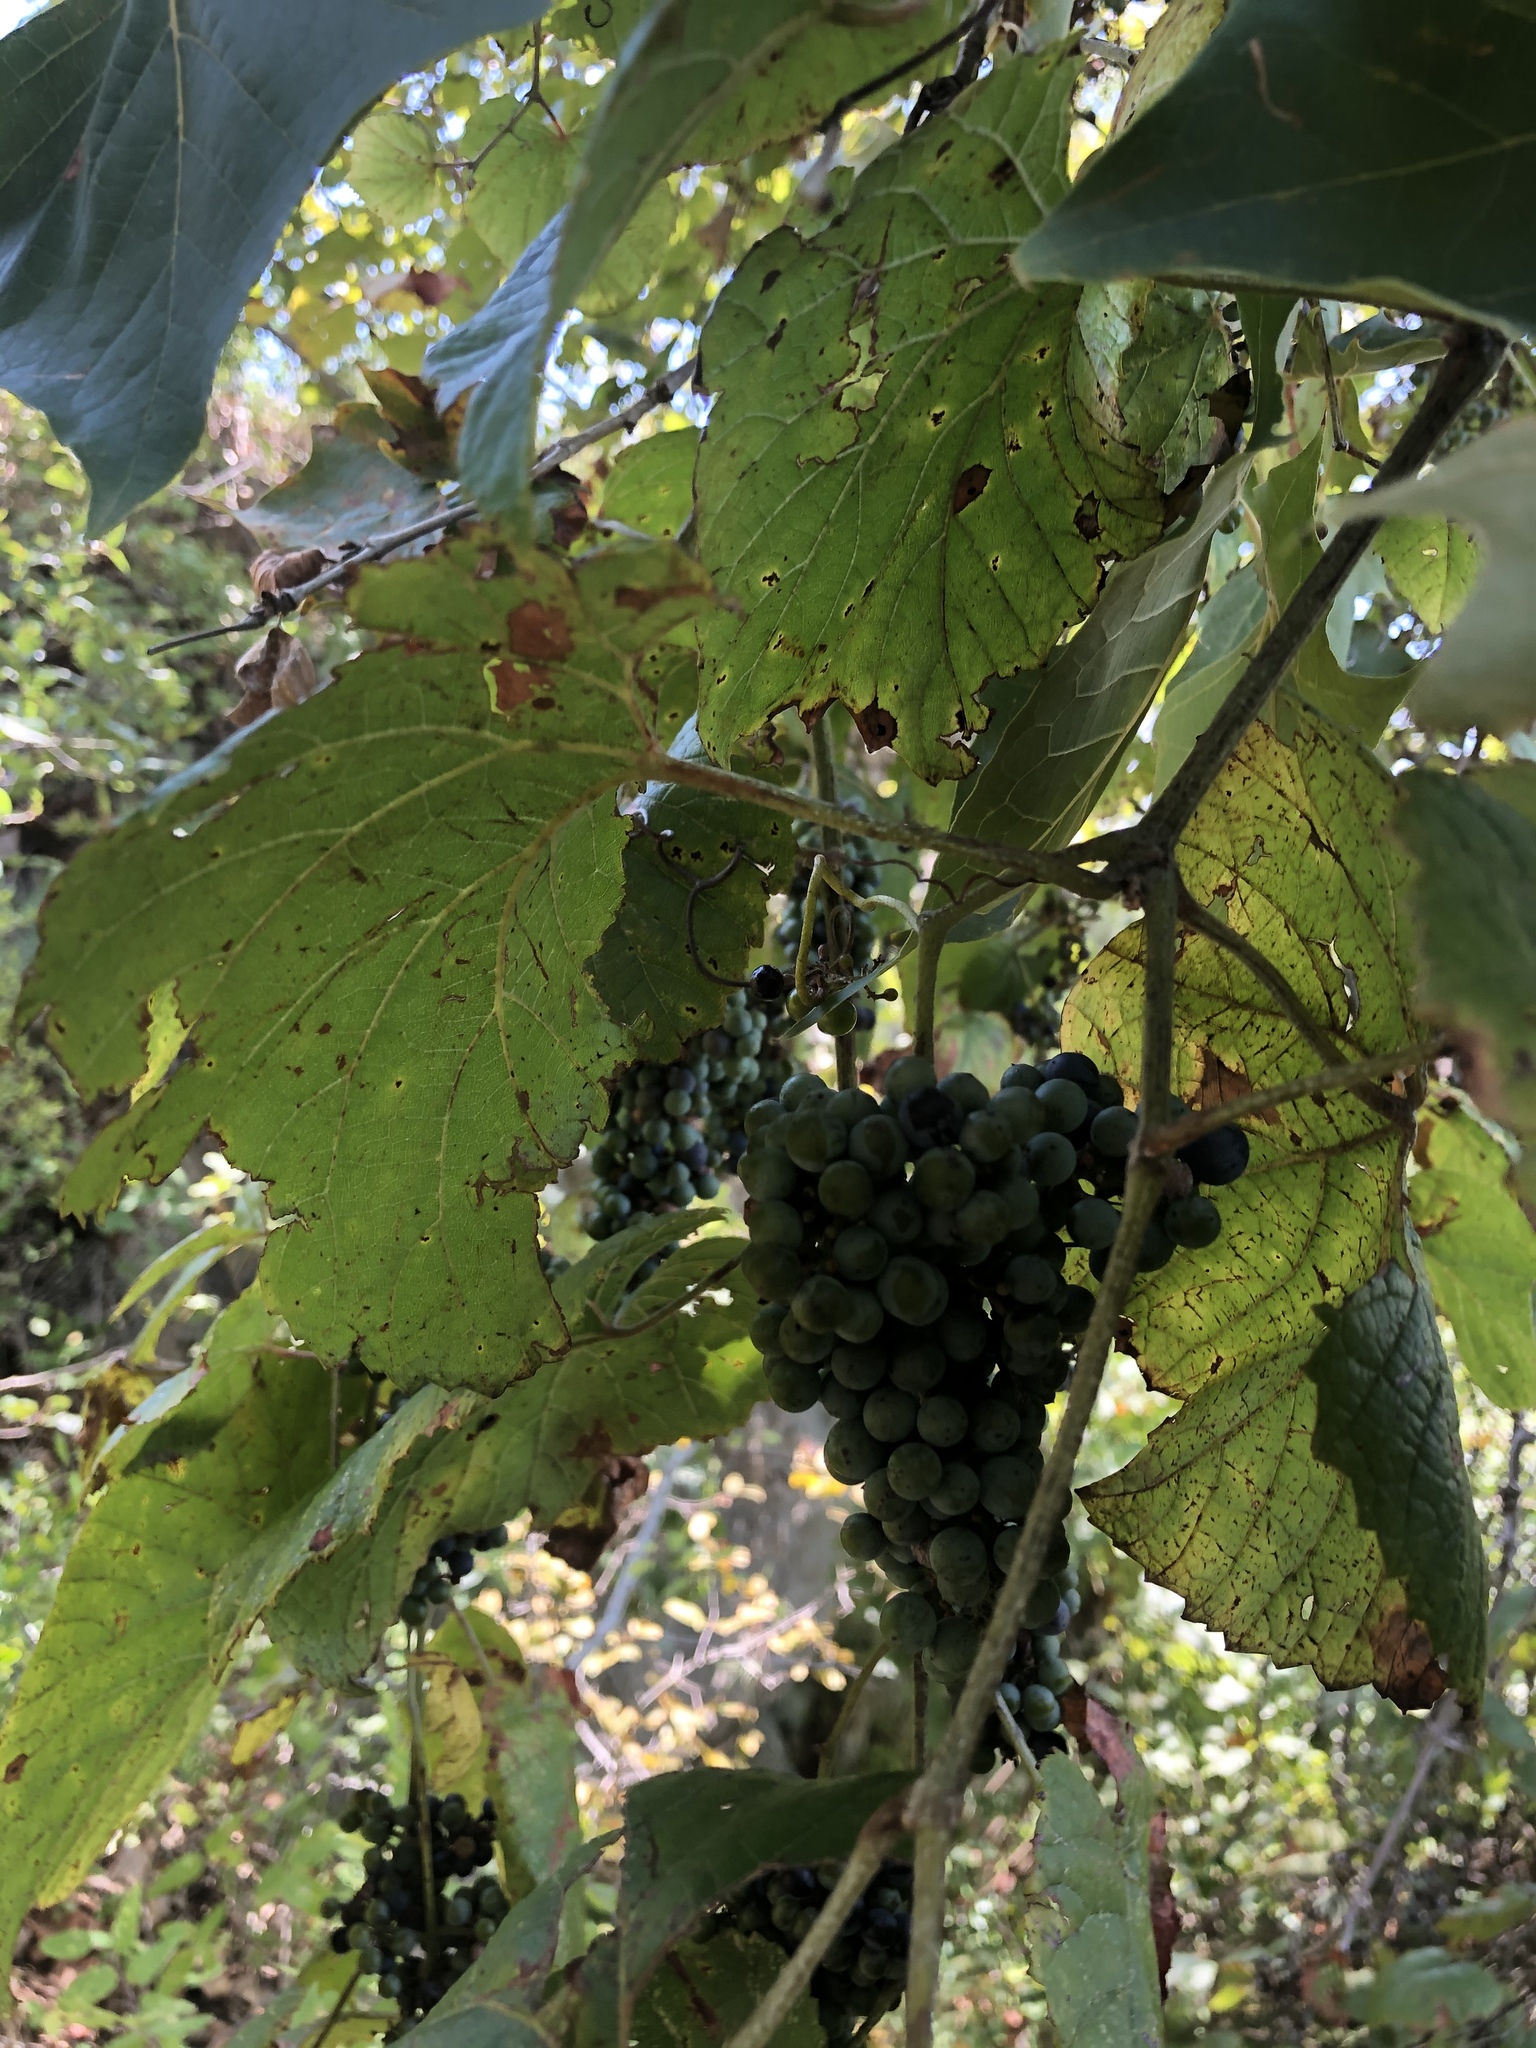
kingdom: Plantae
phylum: Tracheophyta
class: Magnoliopsida
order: Vitales
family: Vitaceae
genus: Vitis
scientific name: Vitis mustangensis
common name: Mustang grape
